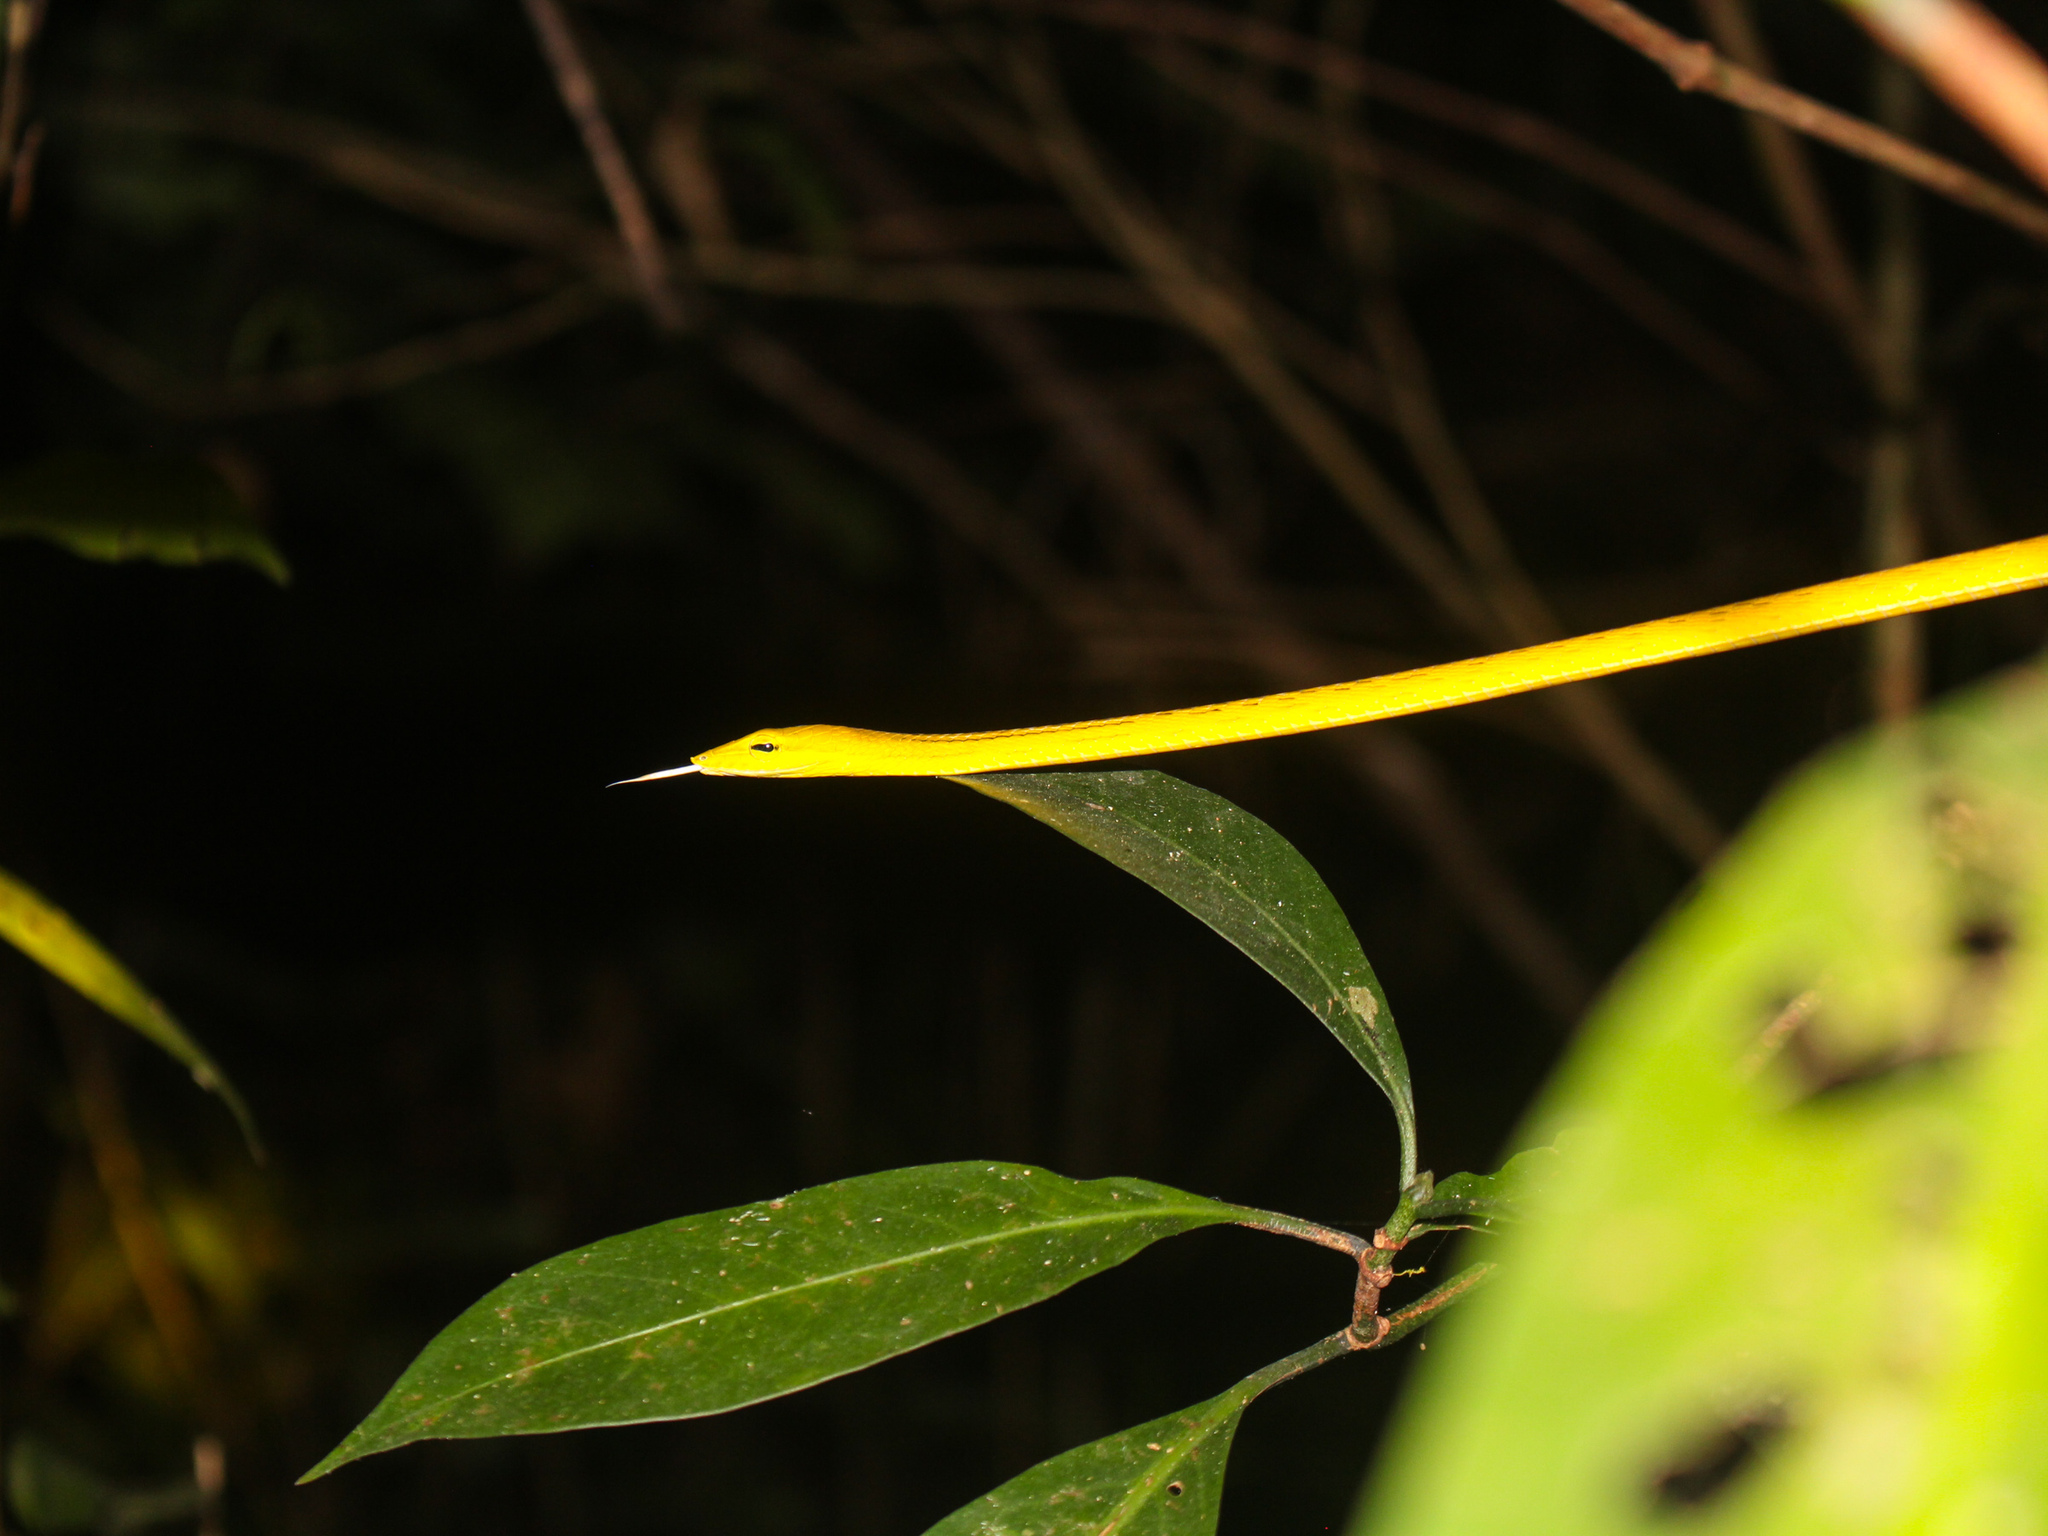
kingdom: Animalia
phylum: Chordata
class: Squamata
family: Colubridae
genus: Ahaetulla
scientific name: Ahaetulla prasina
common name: Oriental whip snake
